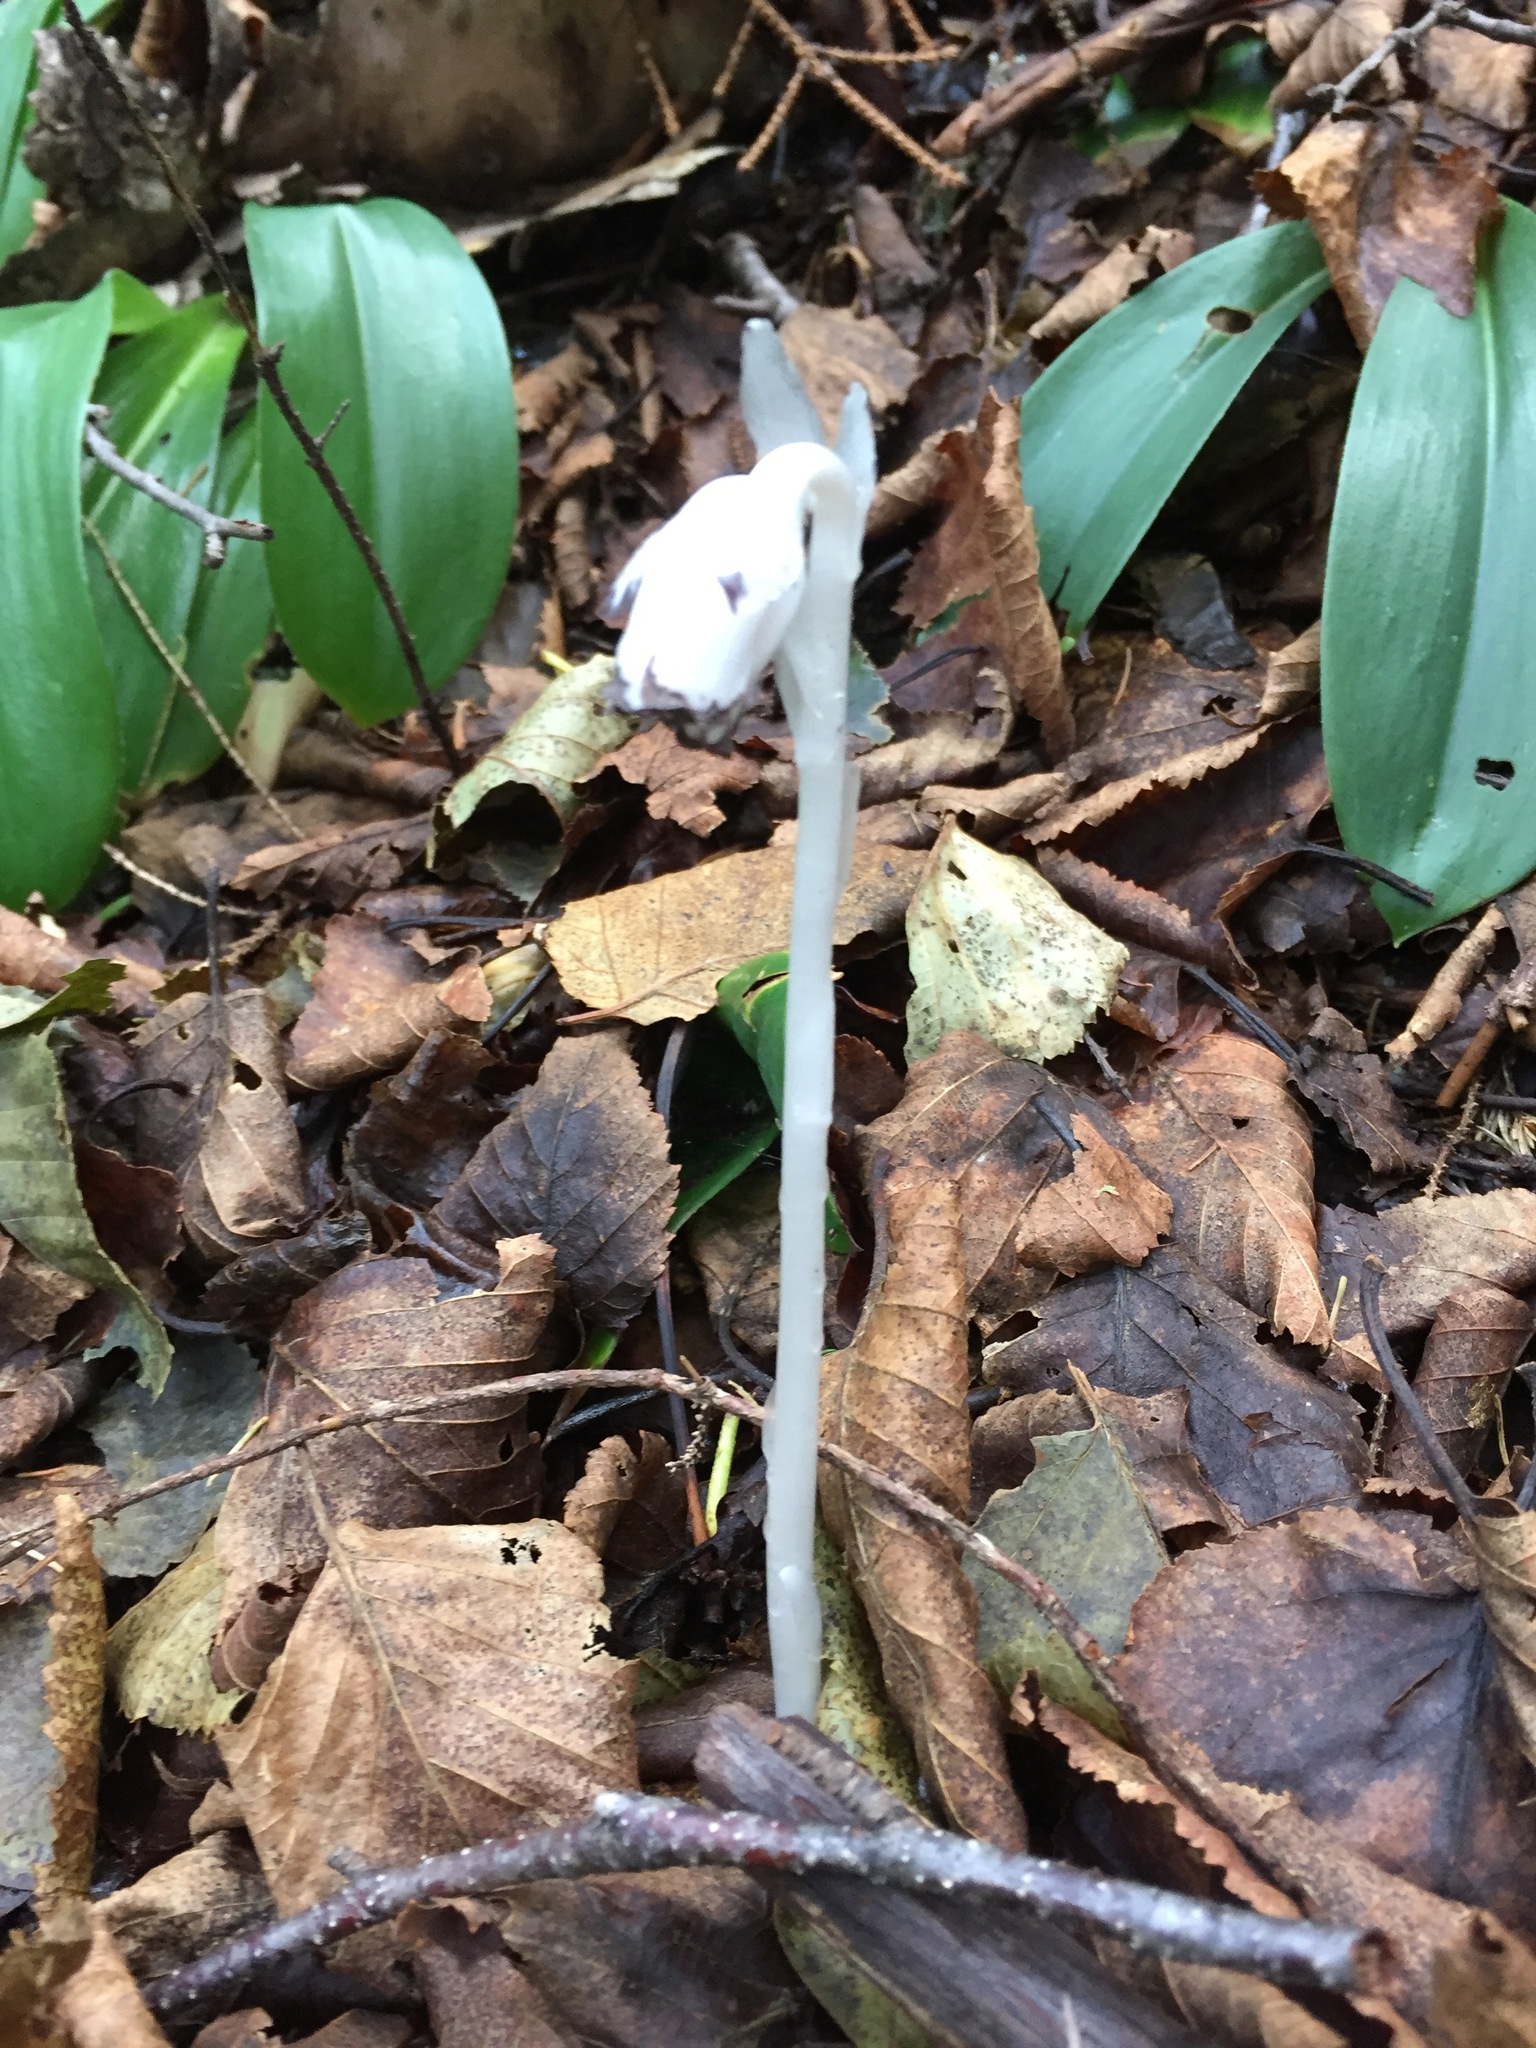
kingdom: Plantae
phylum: Tracheophyta
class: Magnoliopsida
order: Ericales
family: Ericaceae
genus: Monotropa
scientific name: Monotropa uniflora
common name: Convulsion root
